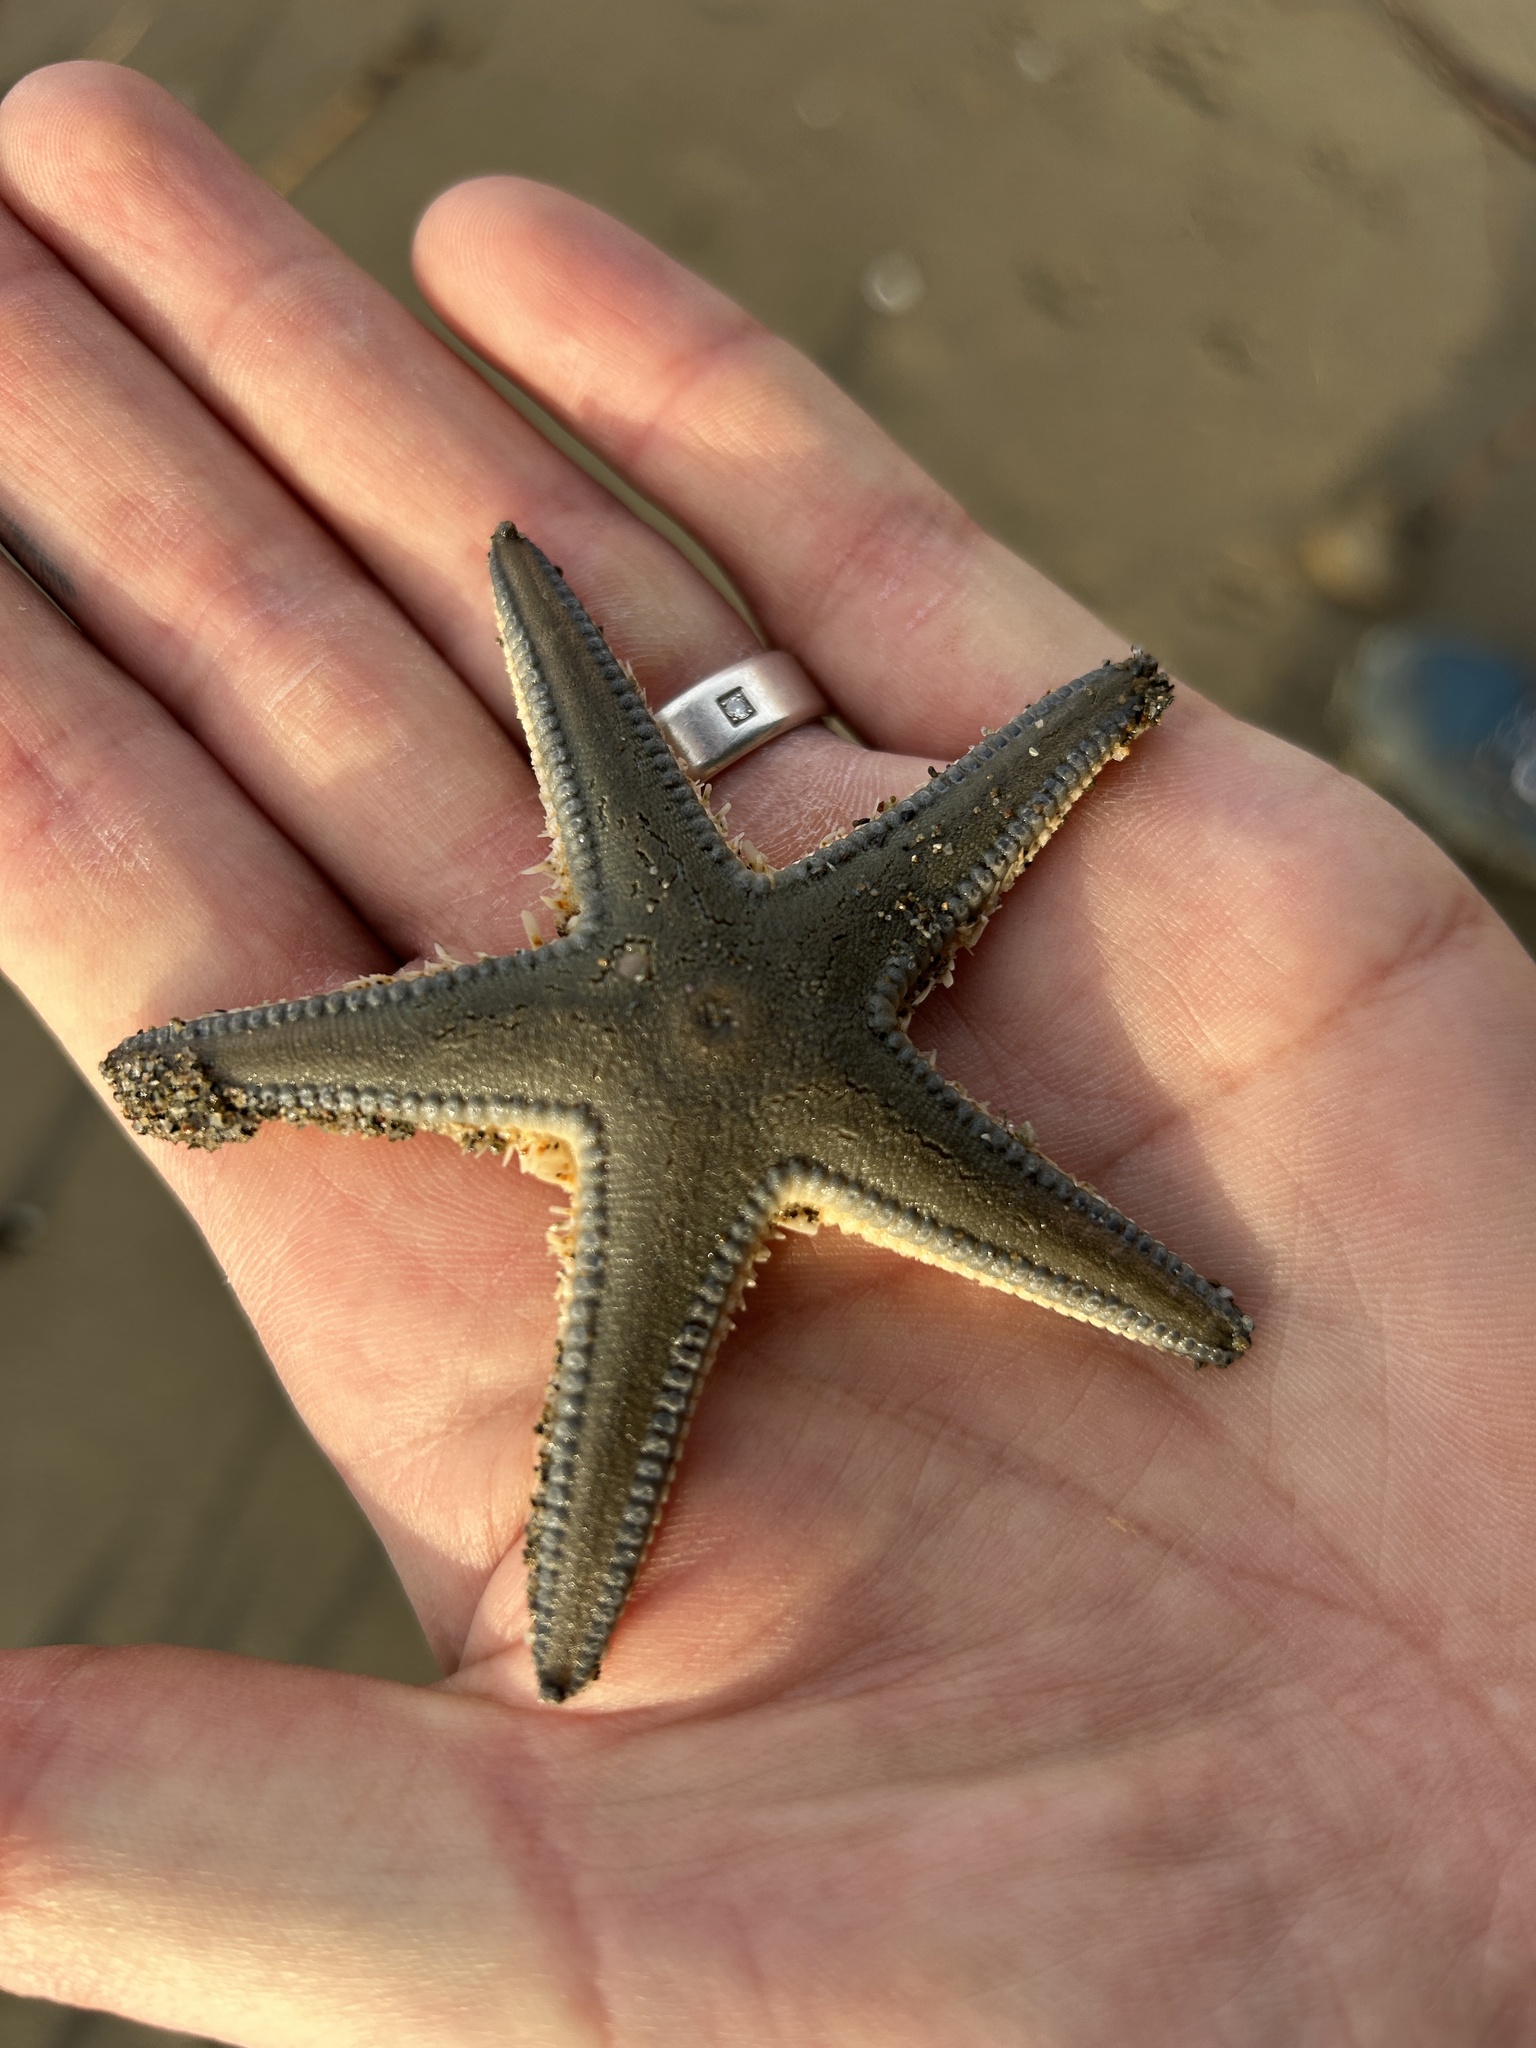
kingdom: Animalia
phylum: Echinodermata
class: Asteroidea
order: Paxillosida
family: Astropectinidae
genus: Astropecten
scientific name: Astropecten jonstoni
